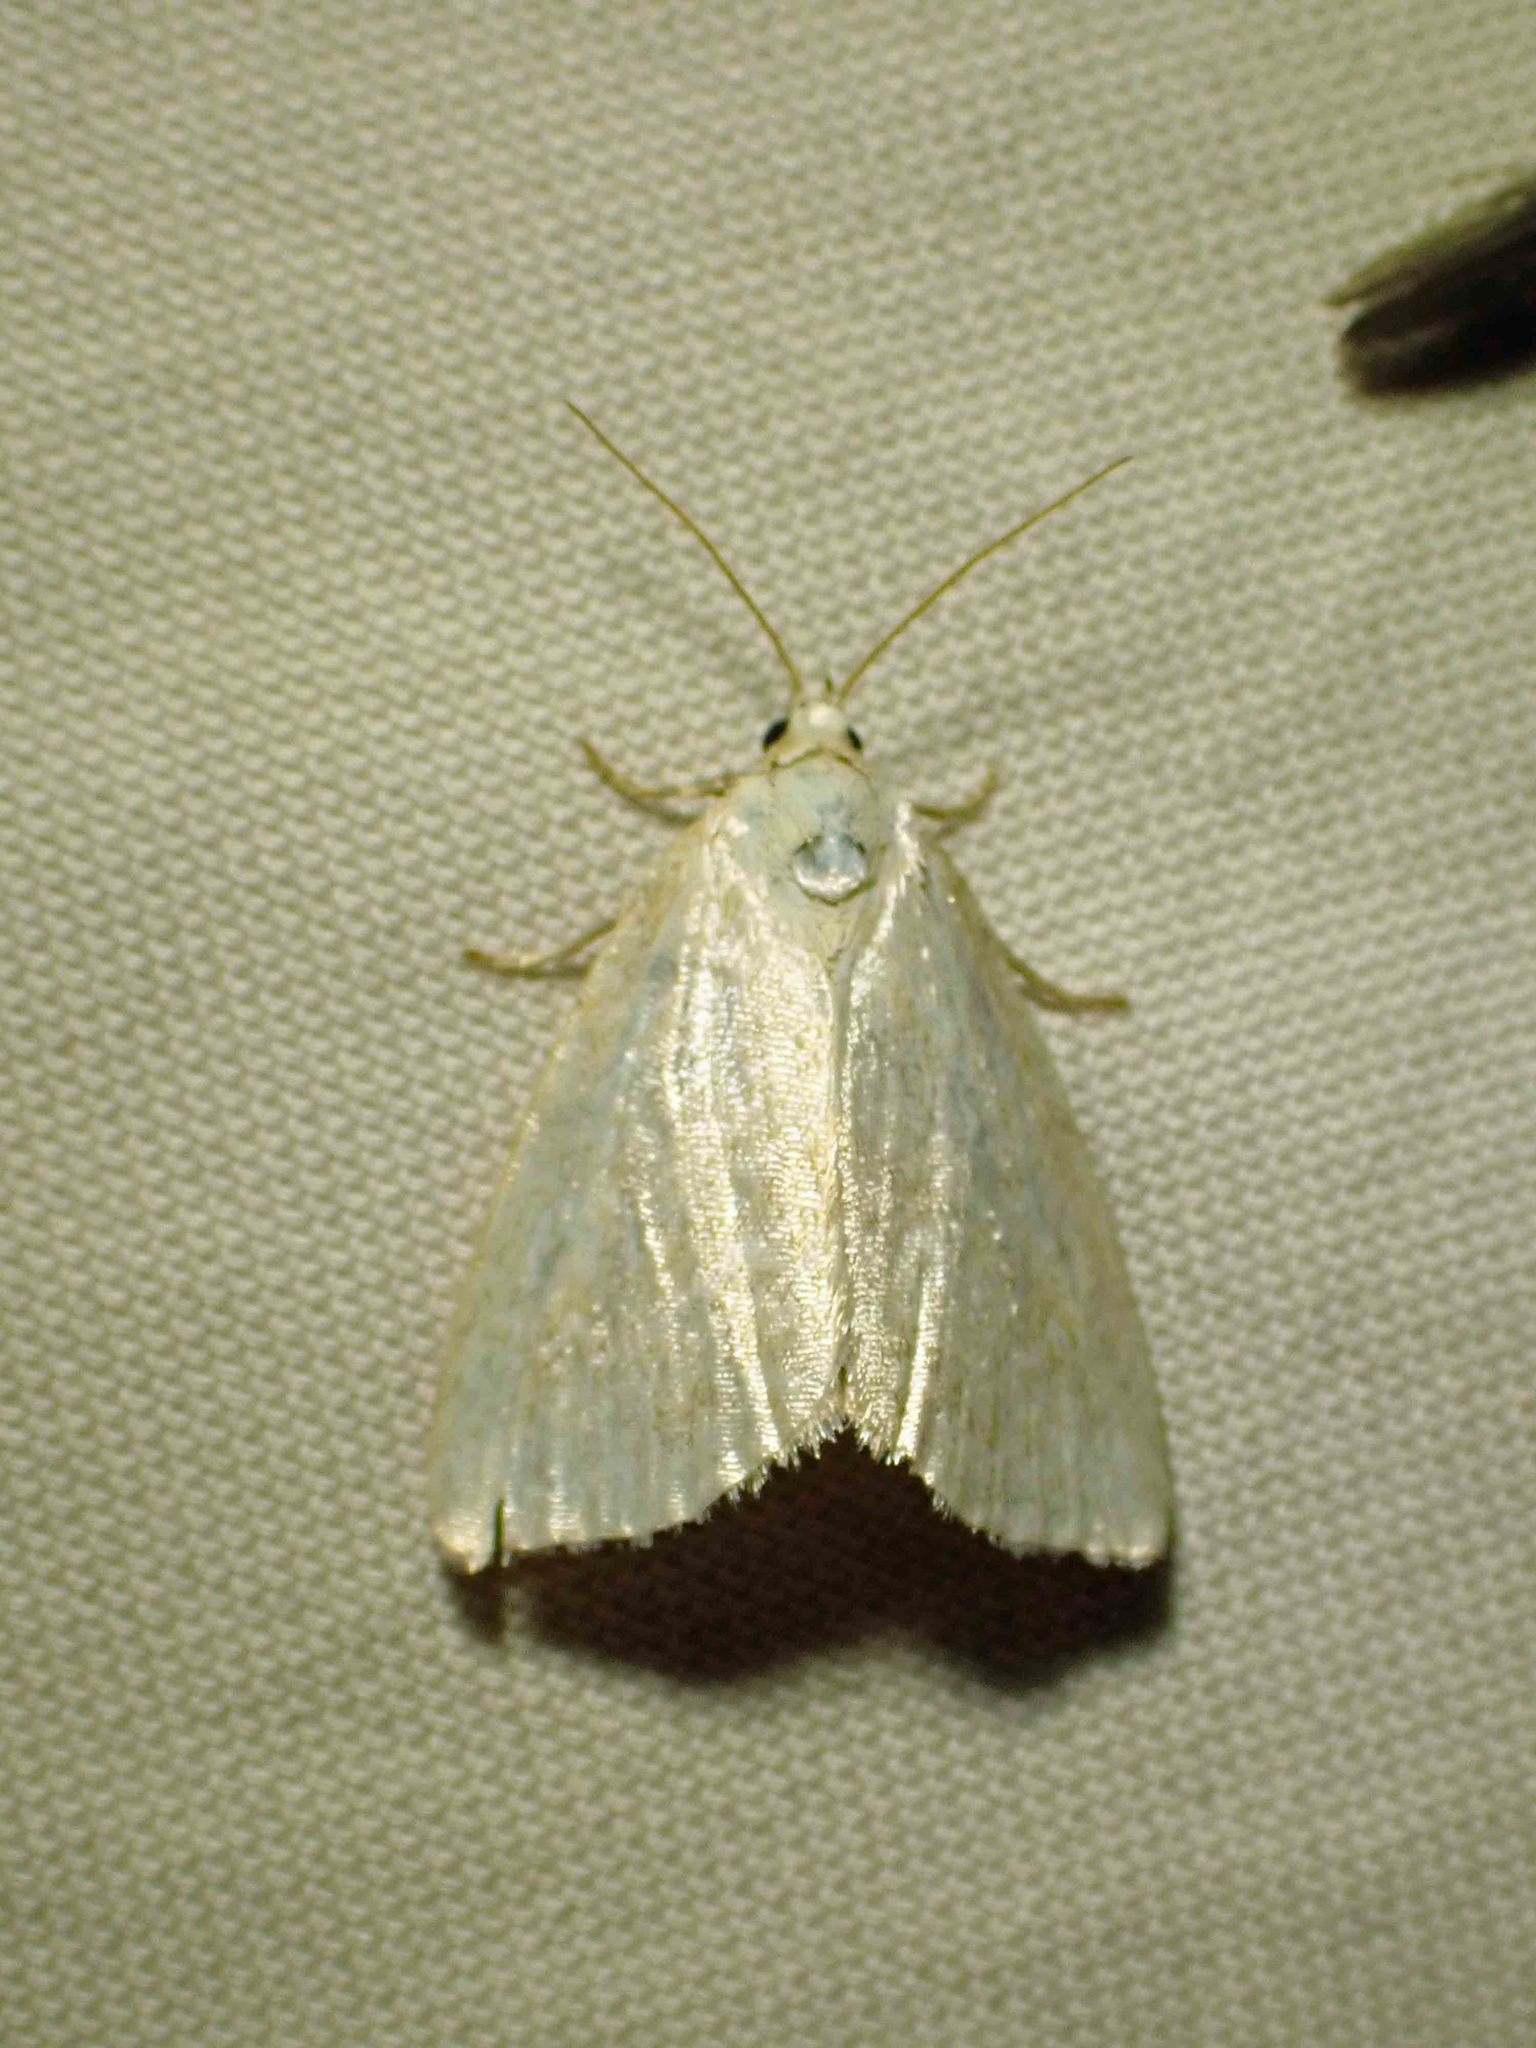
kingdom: Animalia
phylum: Arthropoda
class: Insecta
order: Lepidoptera
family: Noctuidae
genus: Protodeltote
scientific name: Protodeltote albidula
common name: Pale glyph
